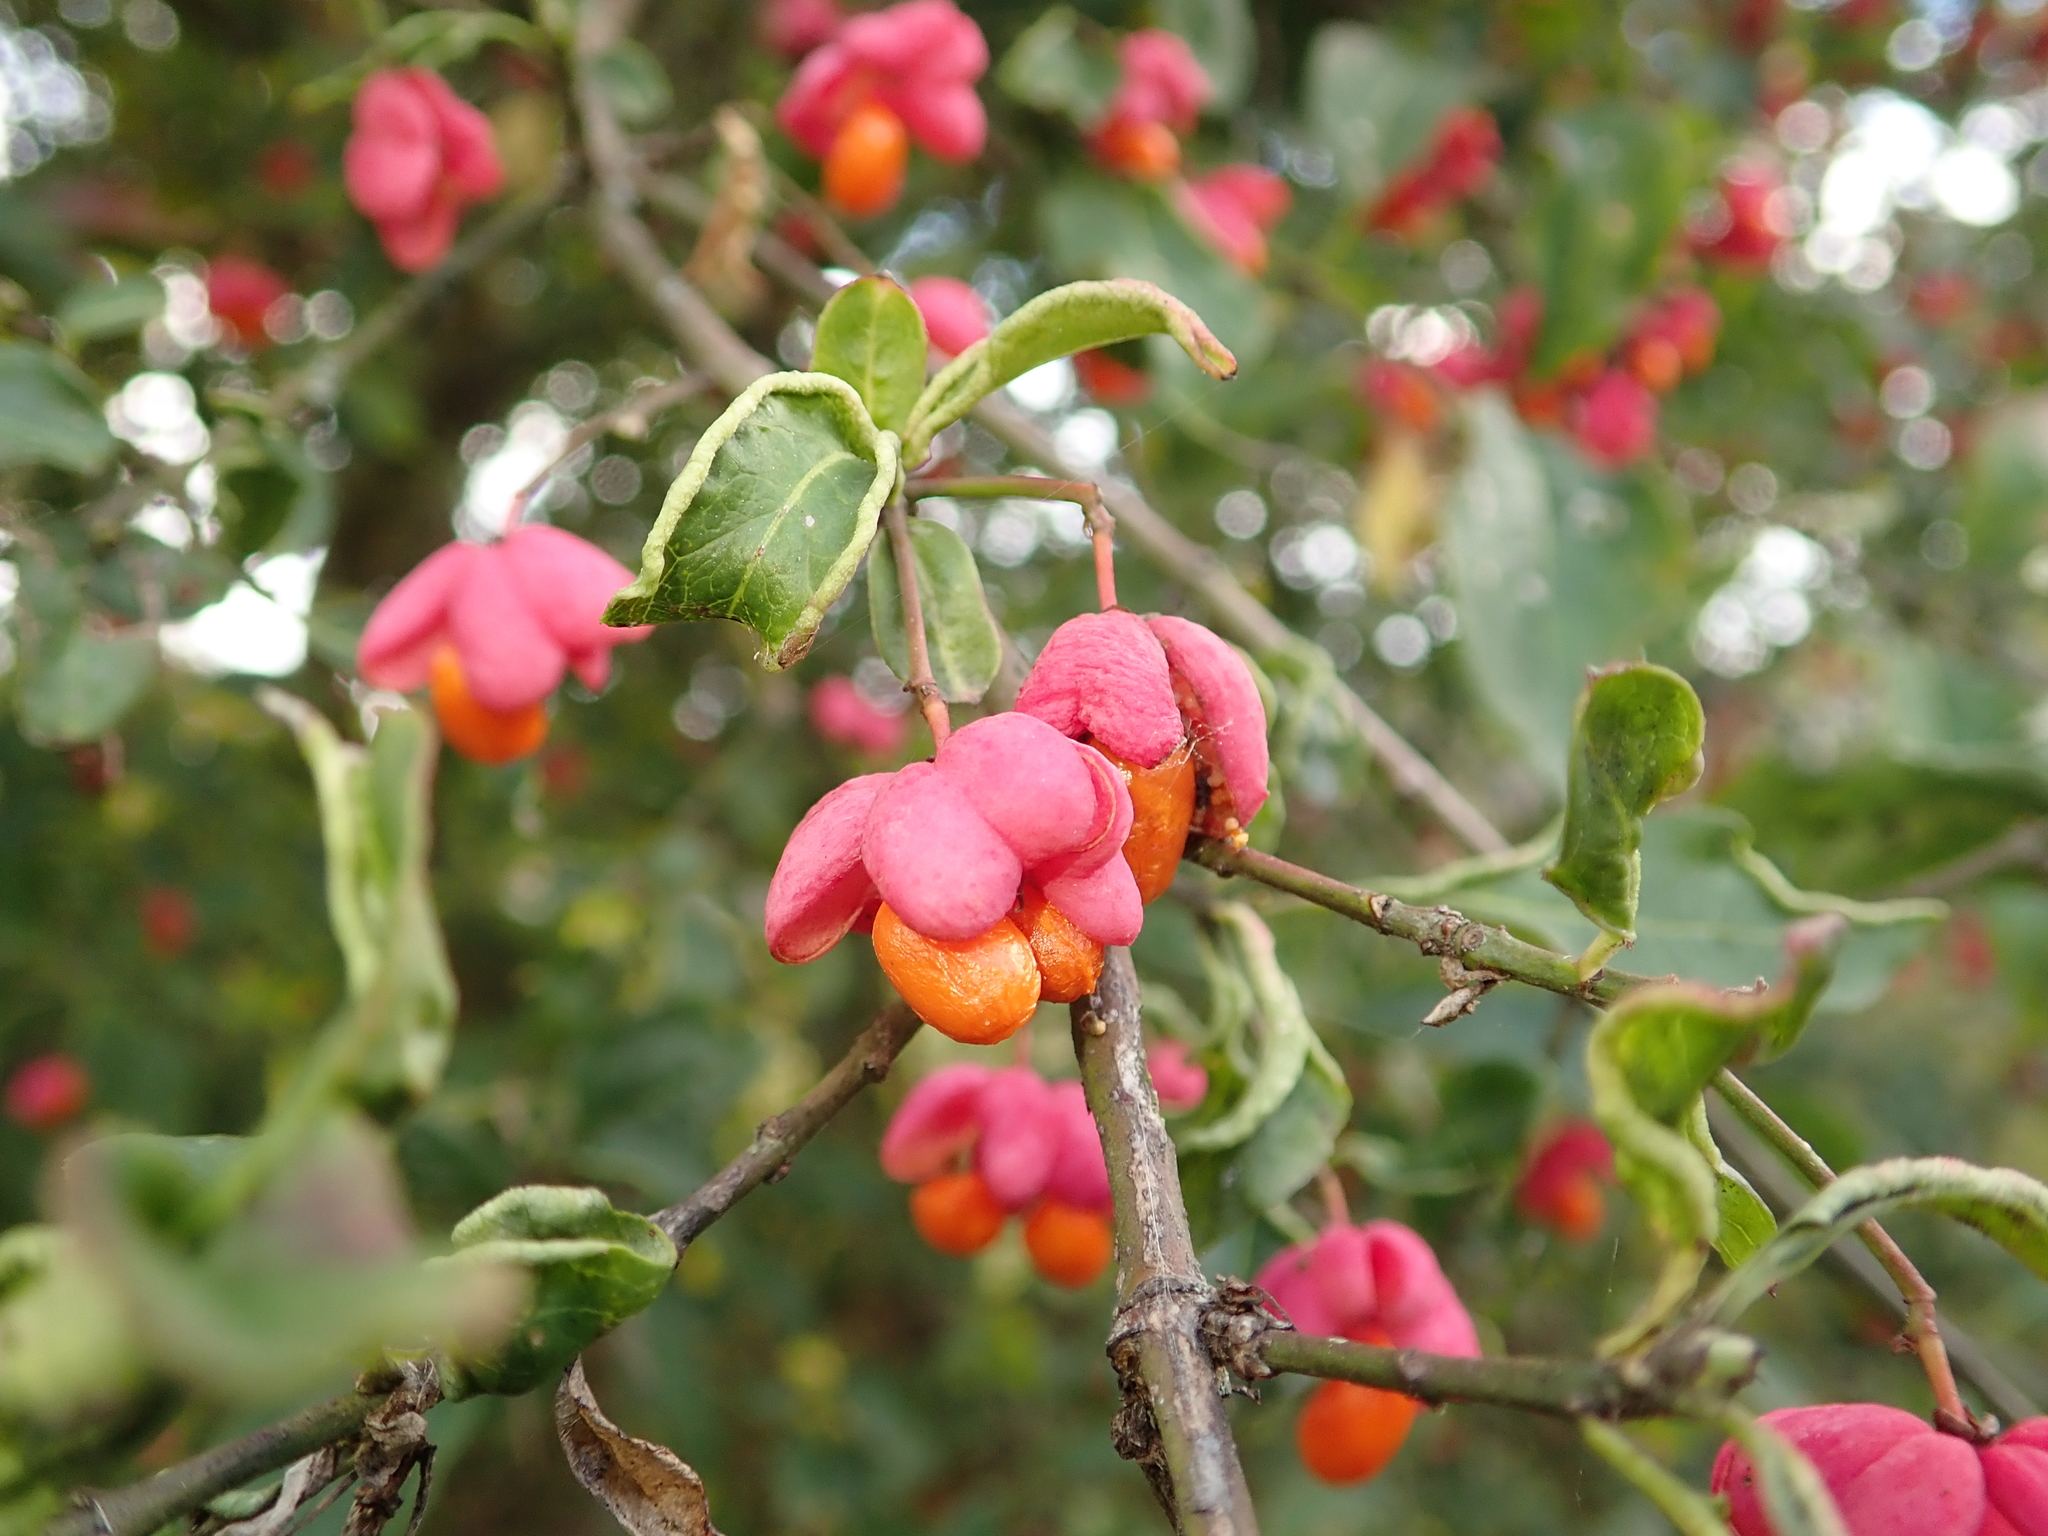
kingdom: Plantae
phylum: Tracheophyta
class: Magnoliopsida
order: Celastrales
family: Celastraceae
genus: Euonymus
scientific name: Euonymus europaeus
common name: Spindle
